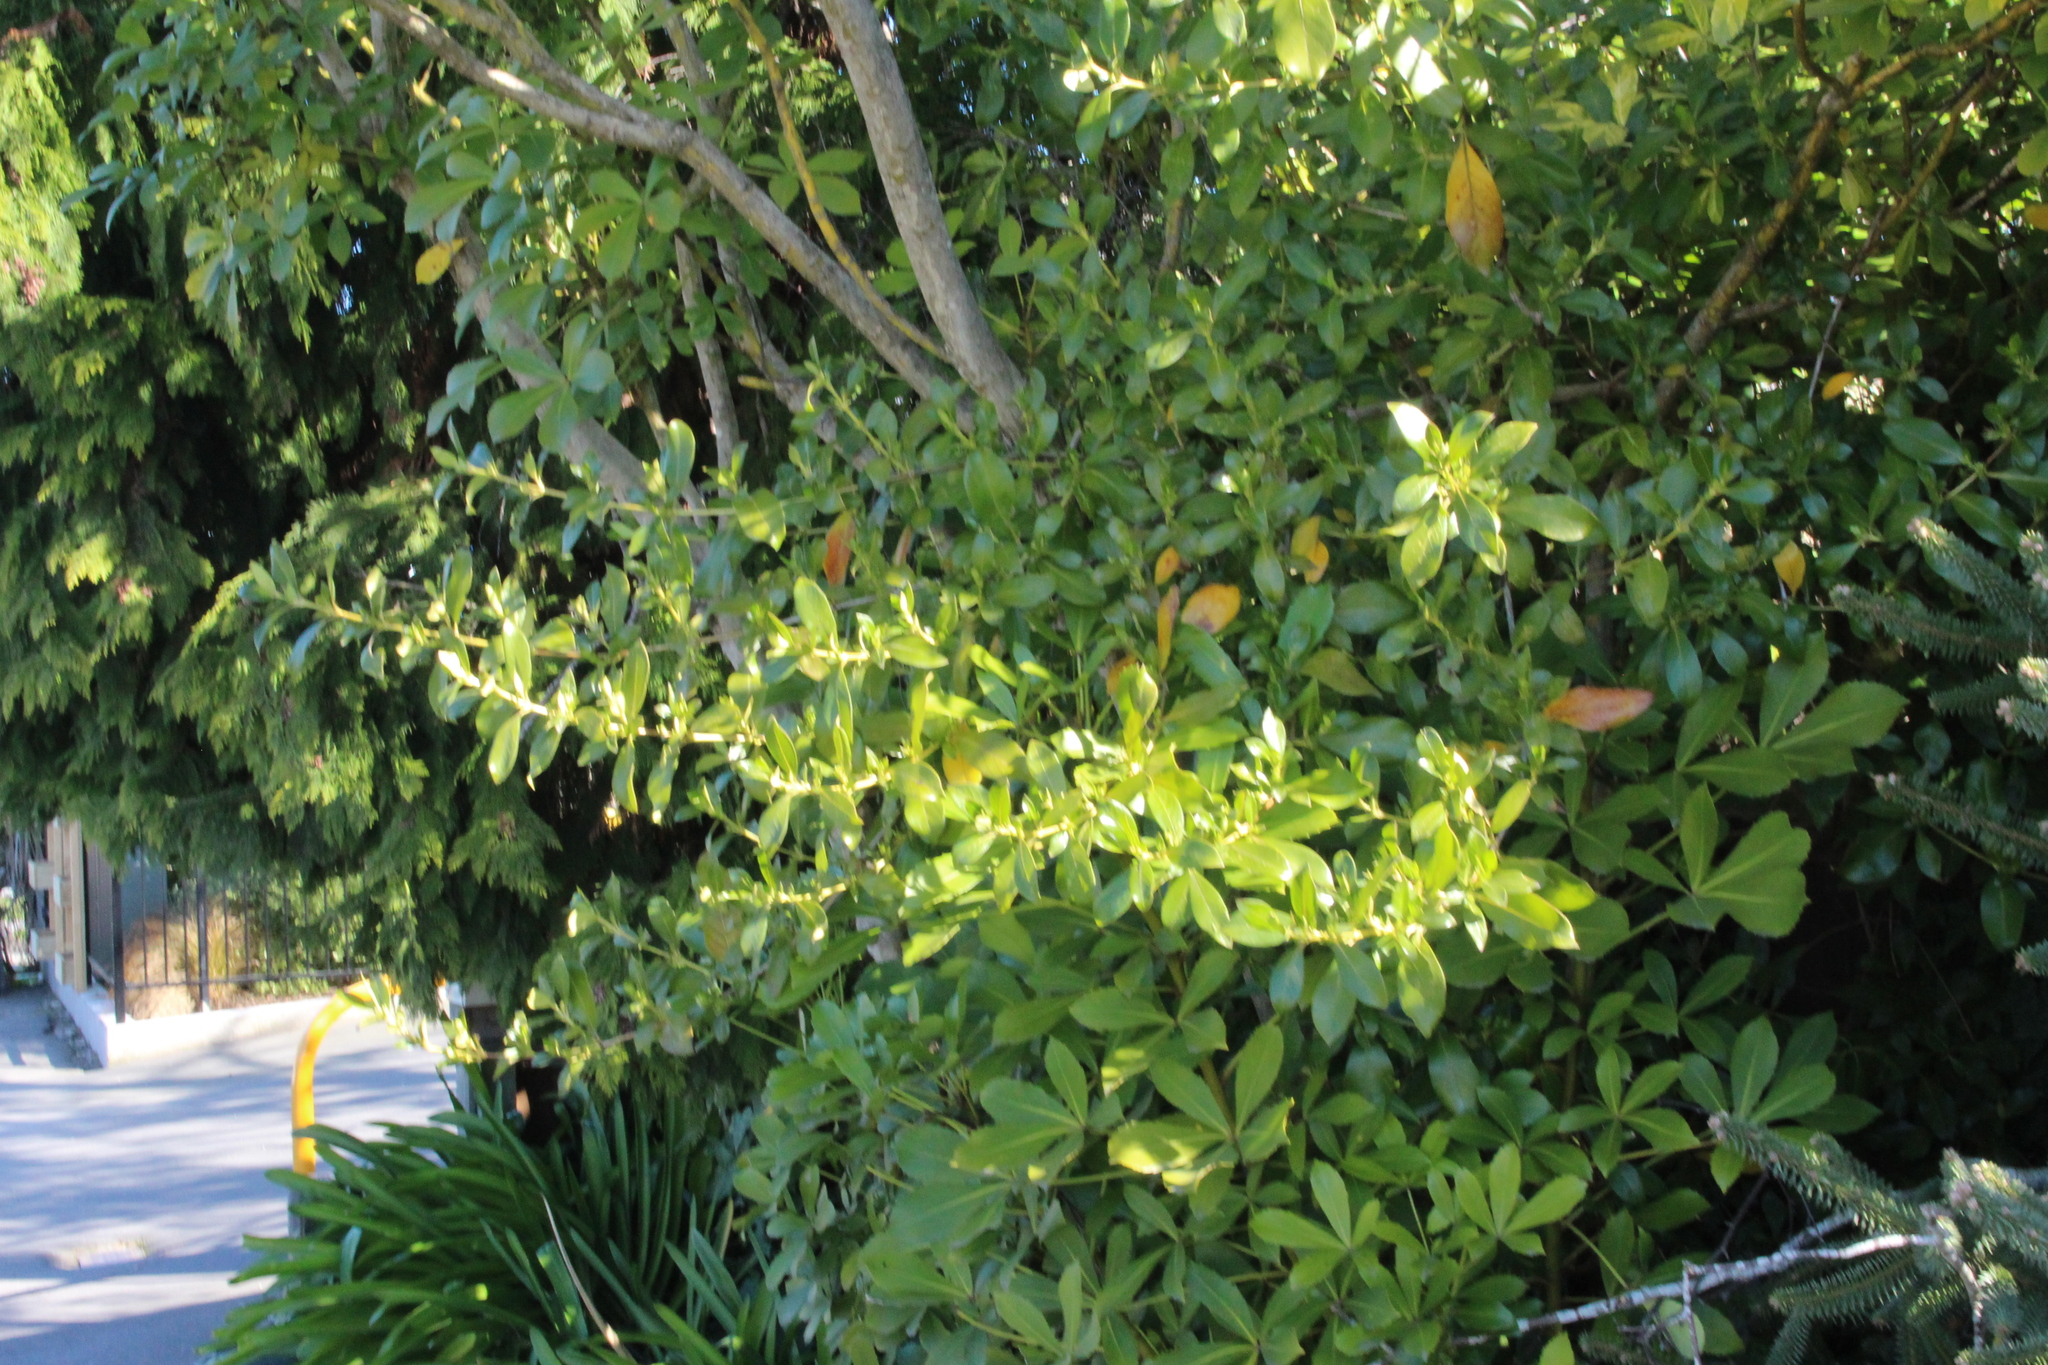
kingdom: Plantae
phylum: Tracheophyta
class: Magnoliopsida
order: Gentianales
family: Rubiaceae
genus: Coprosma
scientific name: Coprosma robusta
